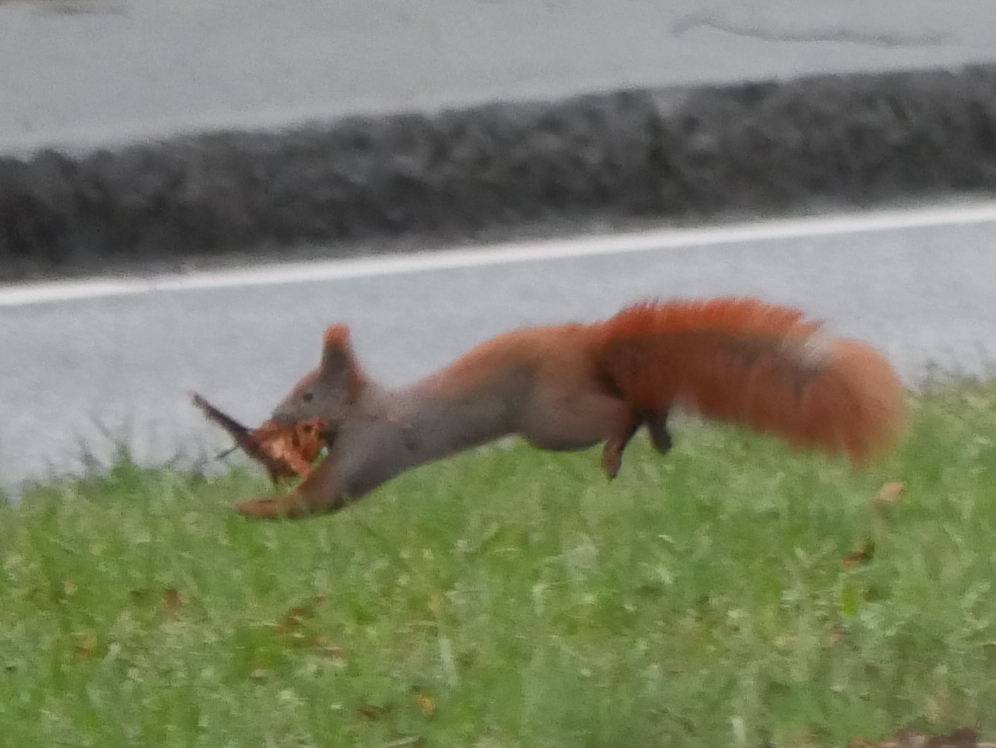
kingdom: Animalia
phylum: Chordata
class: Mammalia
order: Rodentia
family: Sciuridae
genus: Sciurus
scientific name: Sciurus vulgaris
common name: Eurasian red squirrel
